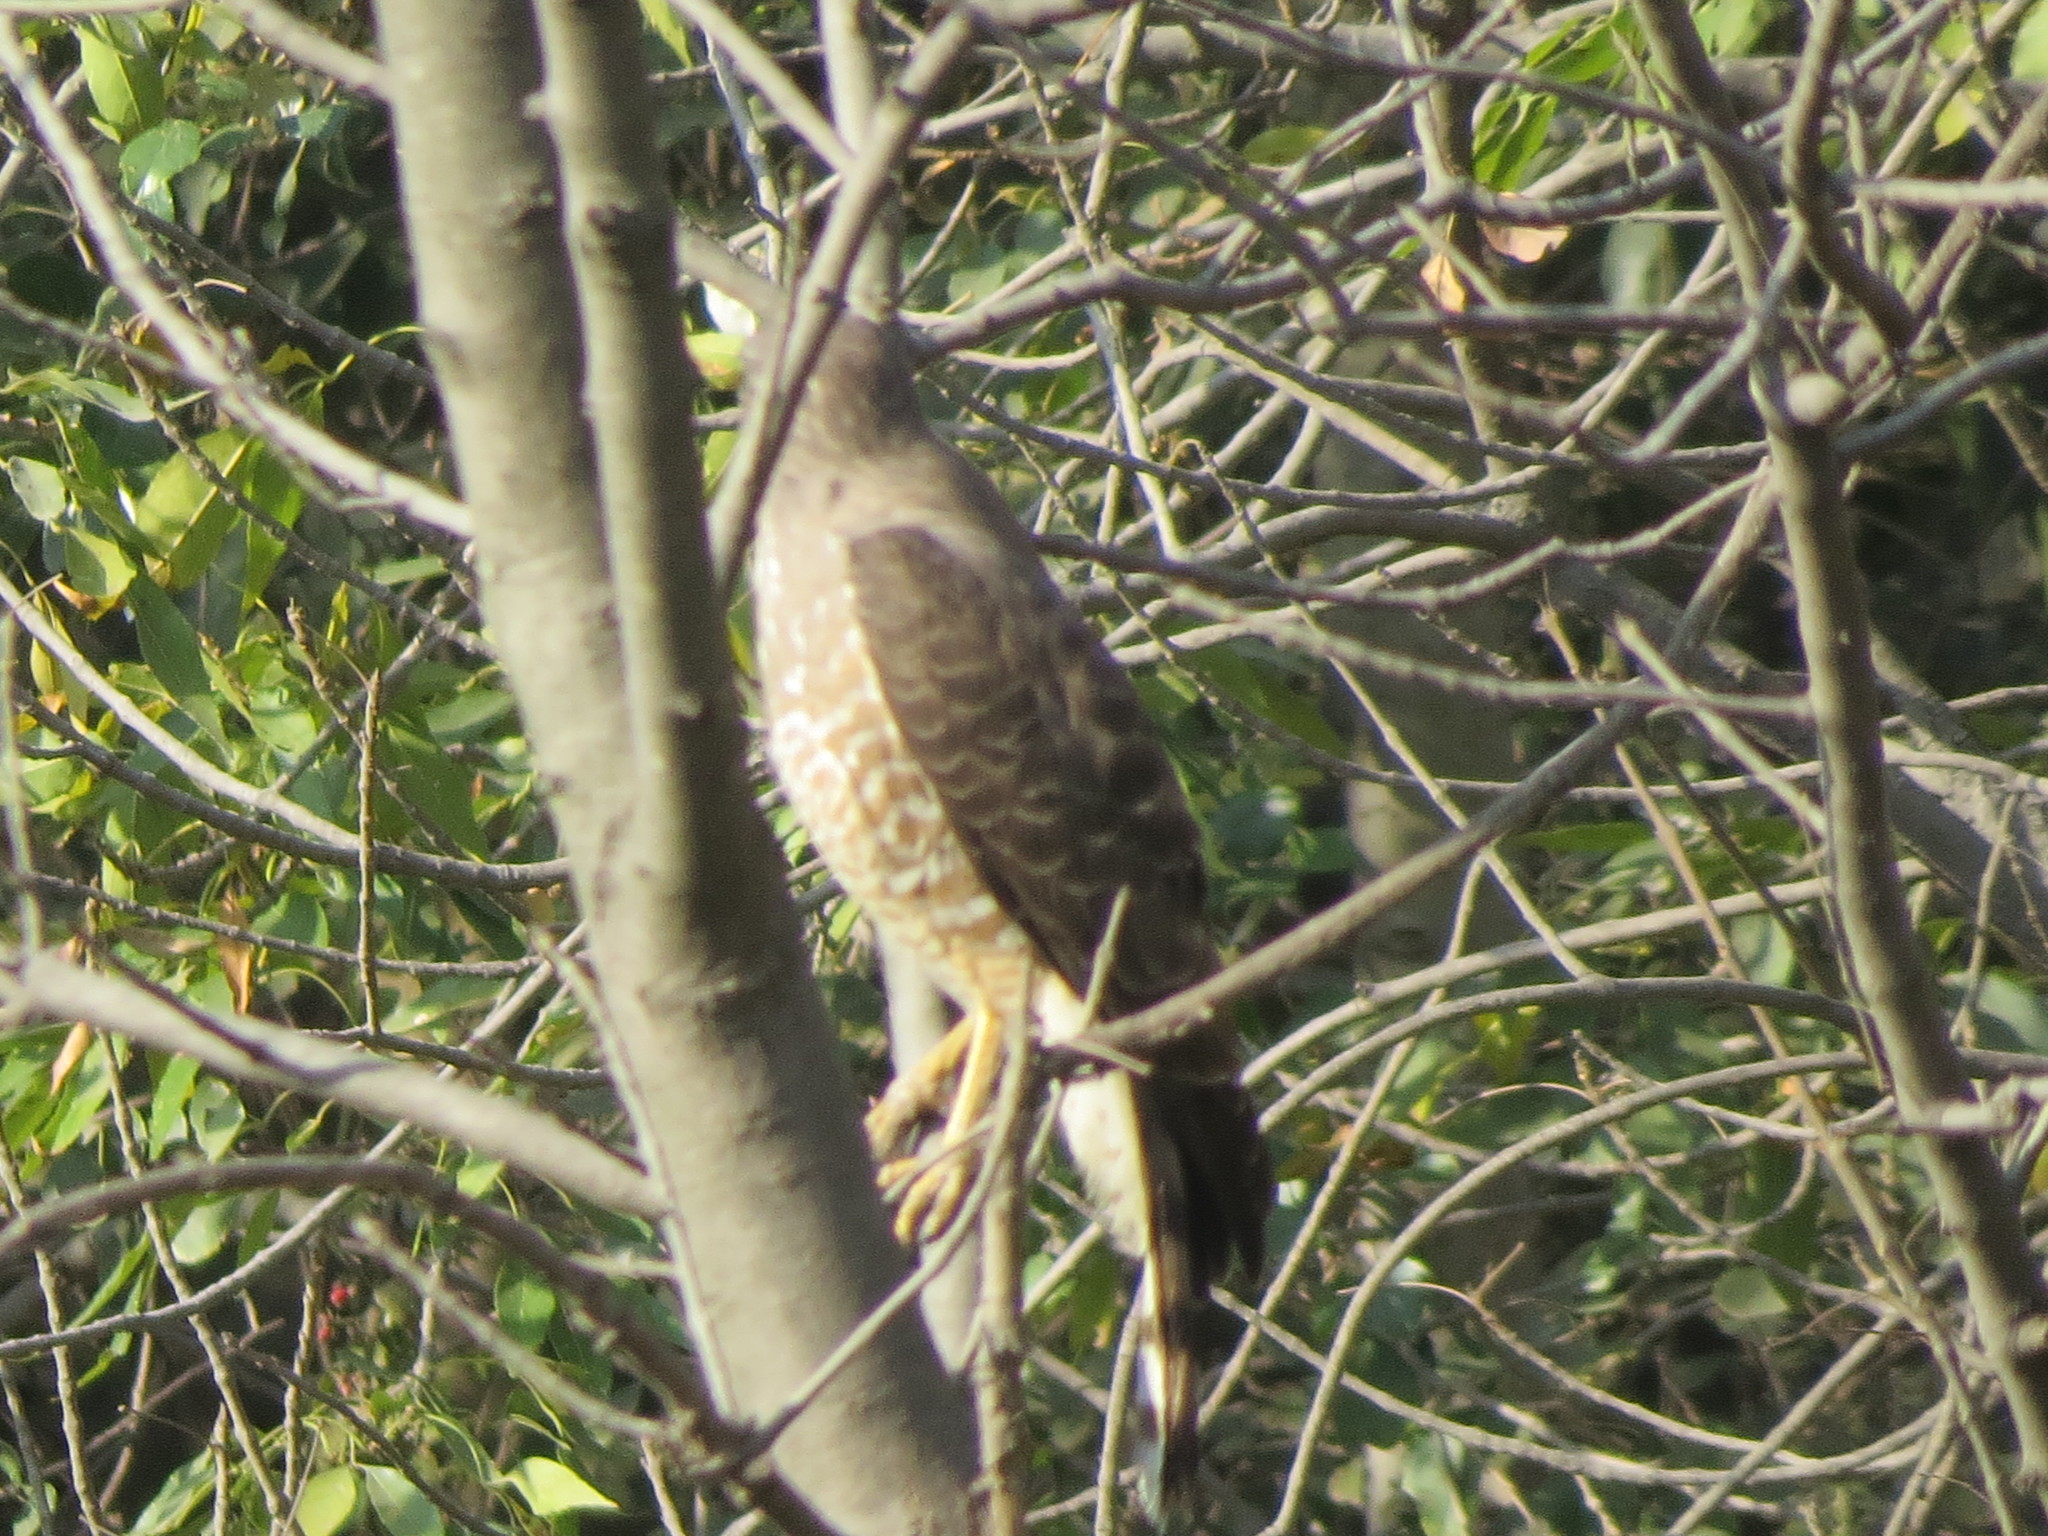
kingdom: Animalia
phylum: Chordata
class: Aves
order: Accipitriformes
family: Accipitridae
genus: Rupornis
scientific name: Rupornis magnirostris
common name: Roadside hawk
